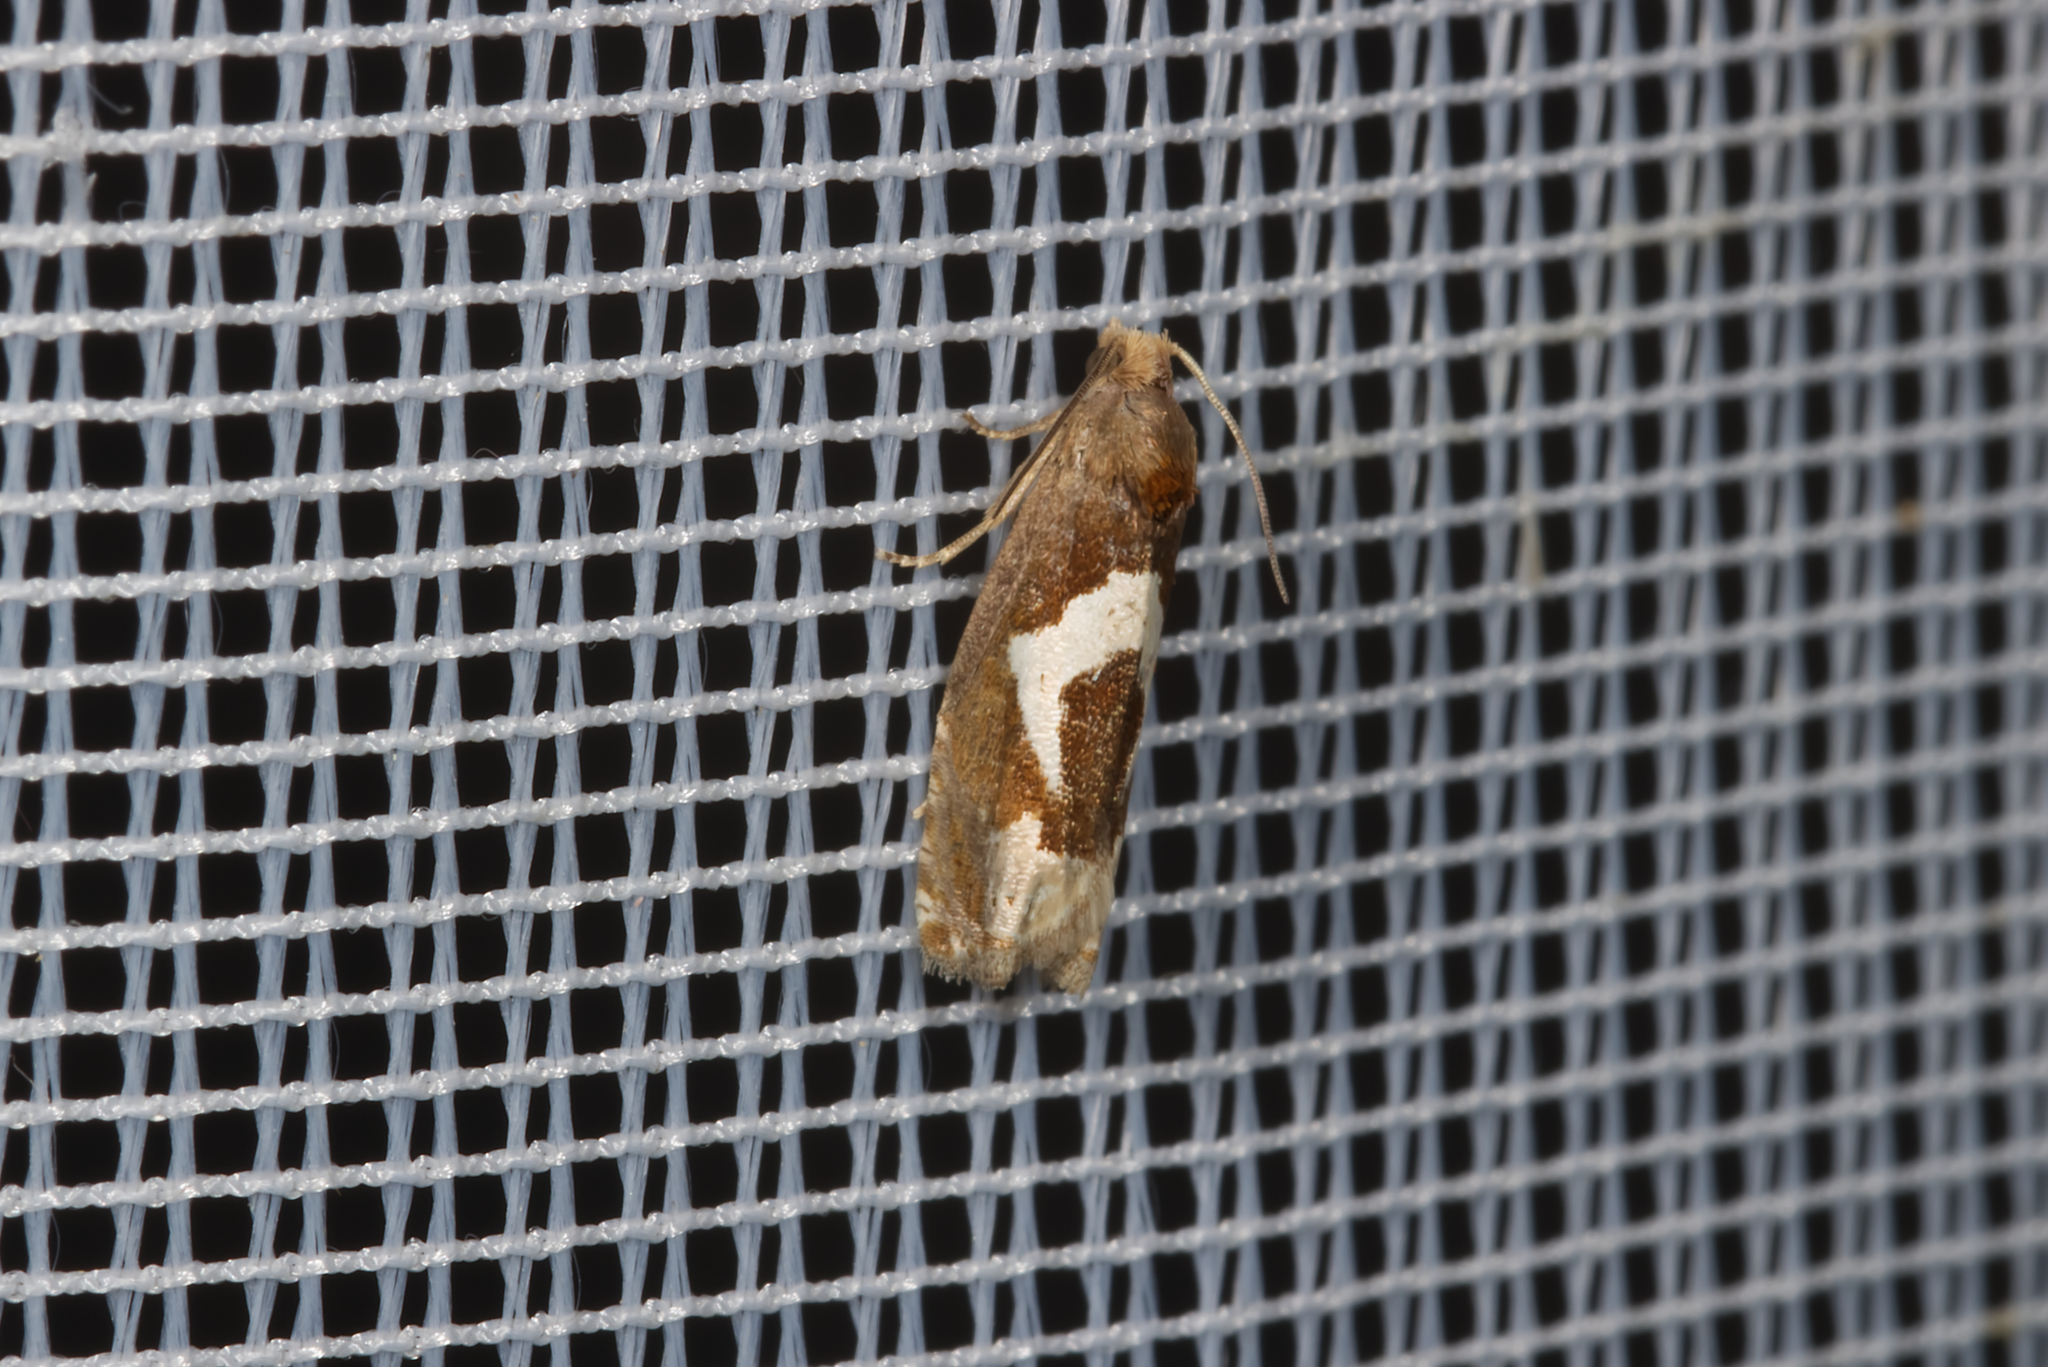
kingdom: Animalia
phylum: Arthropoda
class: Insecta
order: Lepidoptera
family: Tortricidae
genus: Epiblema
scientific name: Epiblema foenella
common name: White-foot bell
